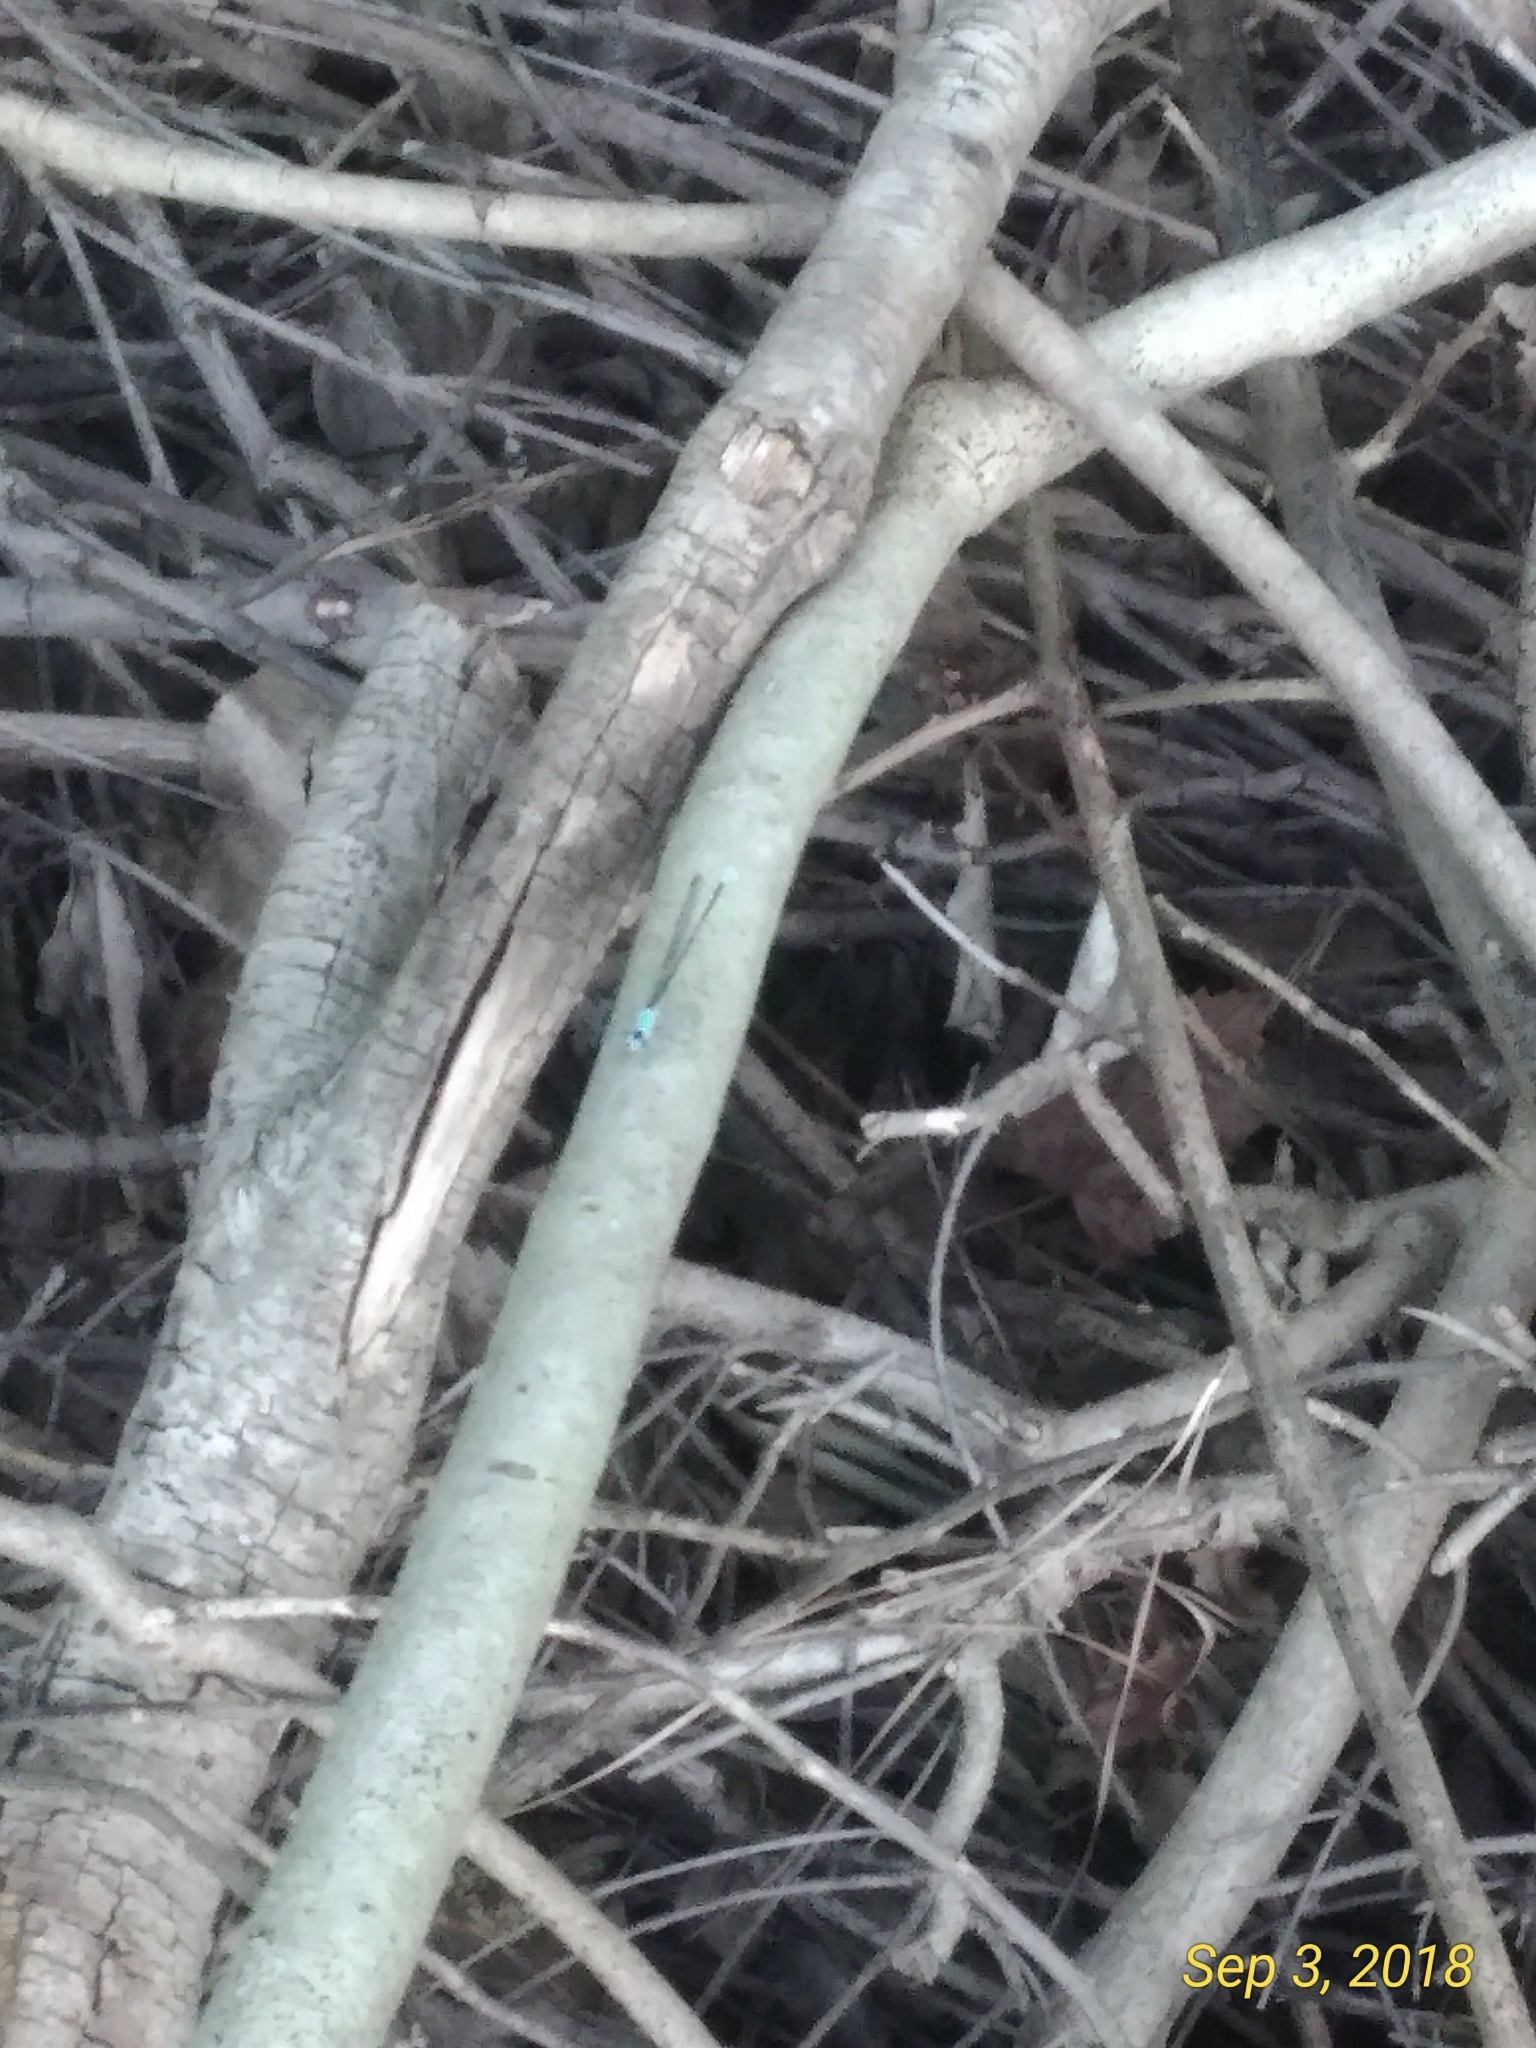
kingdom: Animalia
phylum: Arthropoda
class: Insecta
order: Odonata
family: Coenagrionidae
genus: Argia
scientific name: Argia apicalis
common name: Blue-fronted dancer
